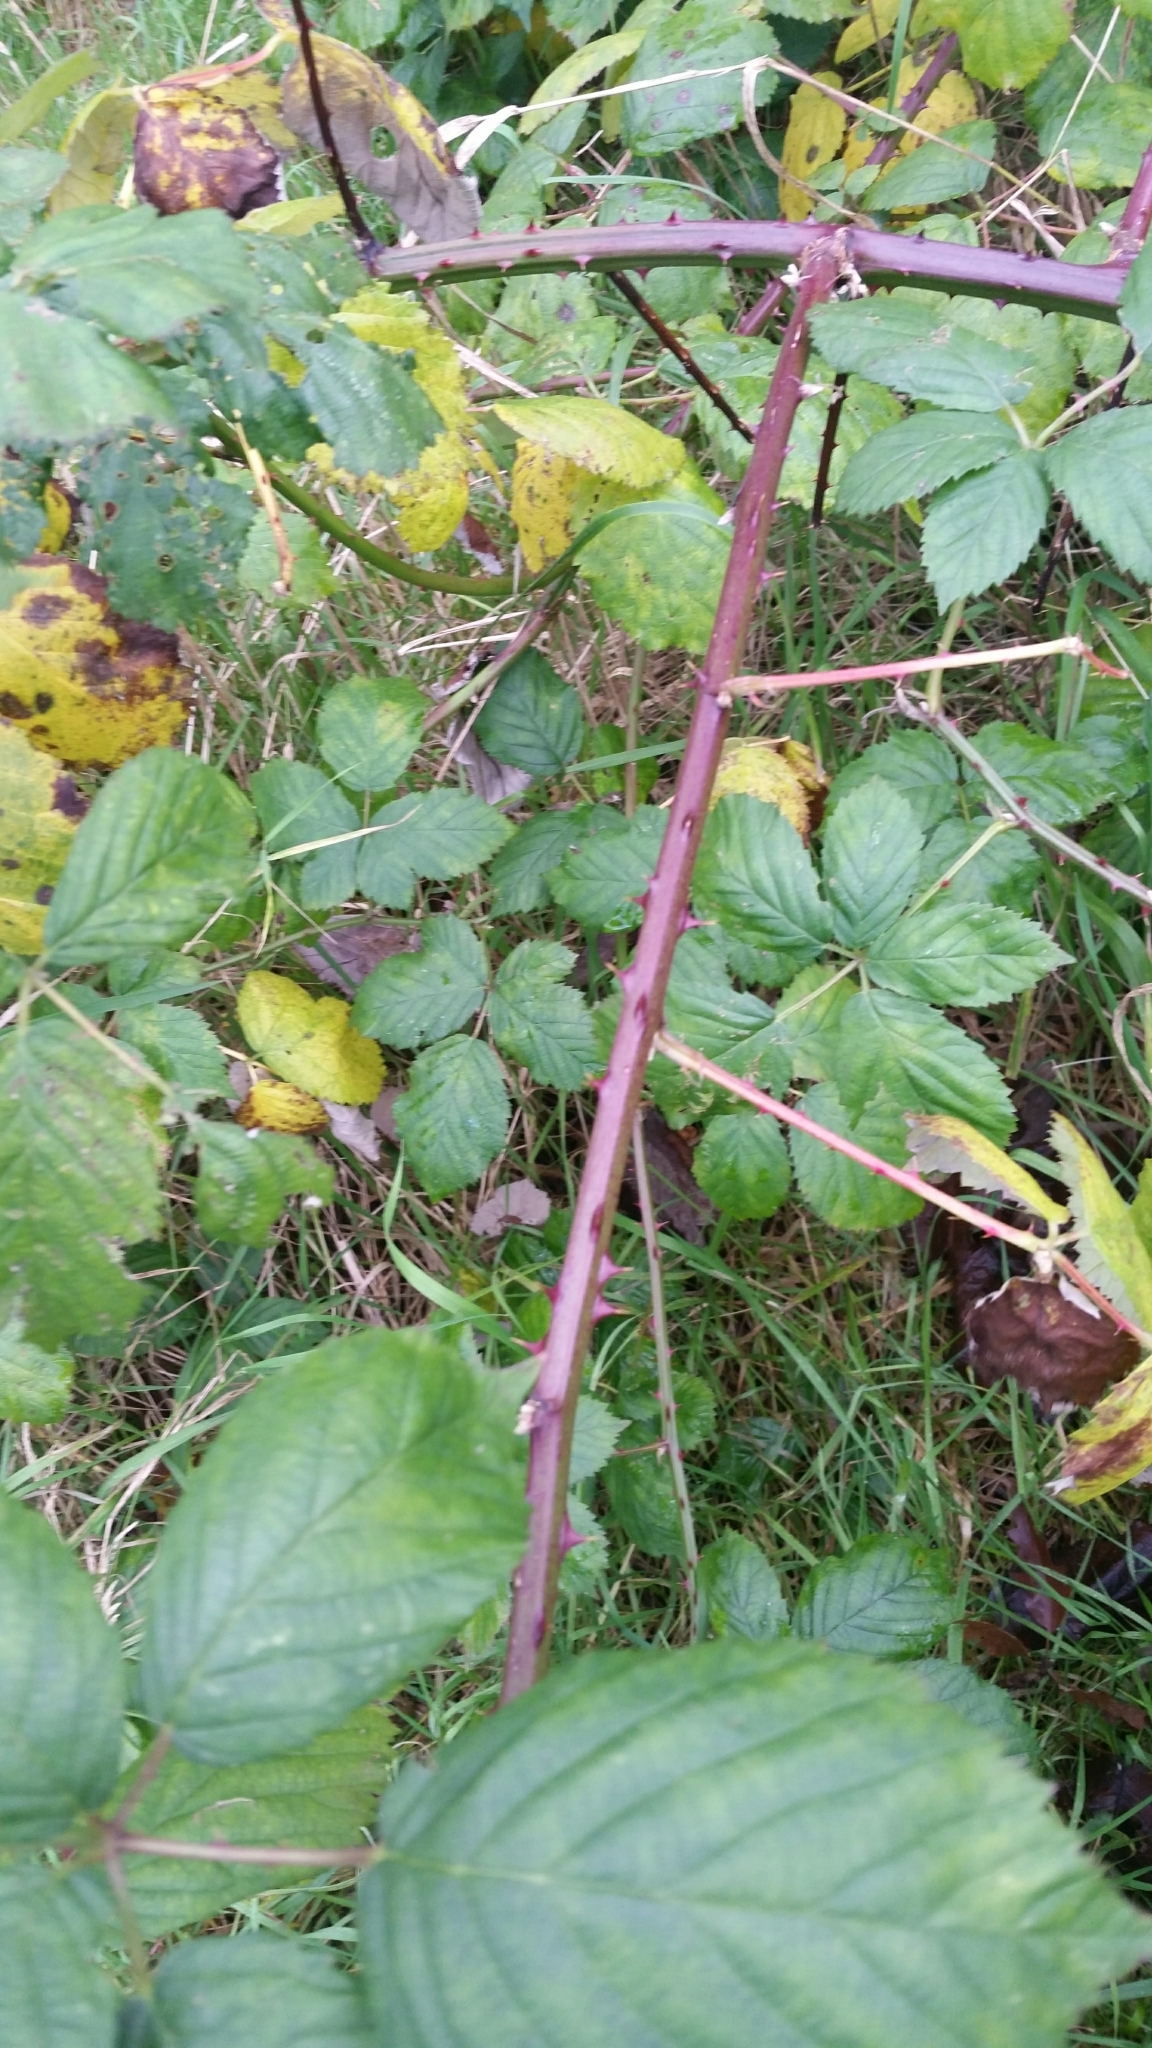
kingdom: Plantae
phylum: Tracheophyta
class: Magnoliopsida
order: Rosales
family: Rosaceae
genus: Rubus
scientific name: Rubus armeniacus
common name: Himalayan blackberry
